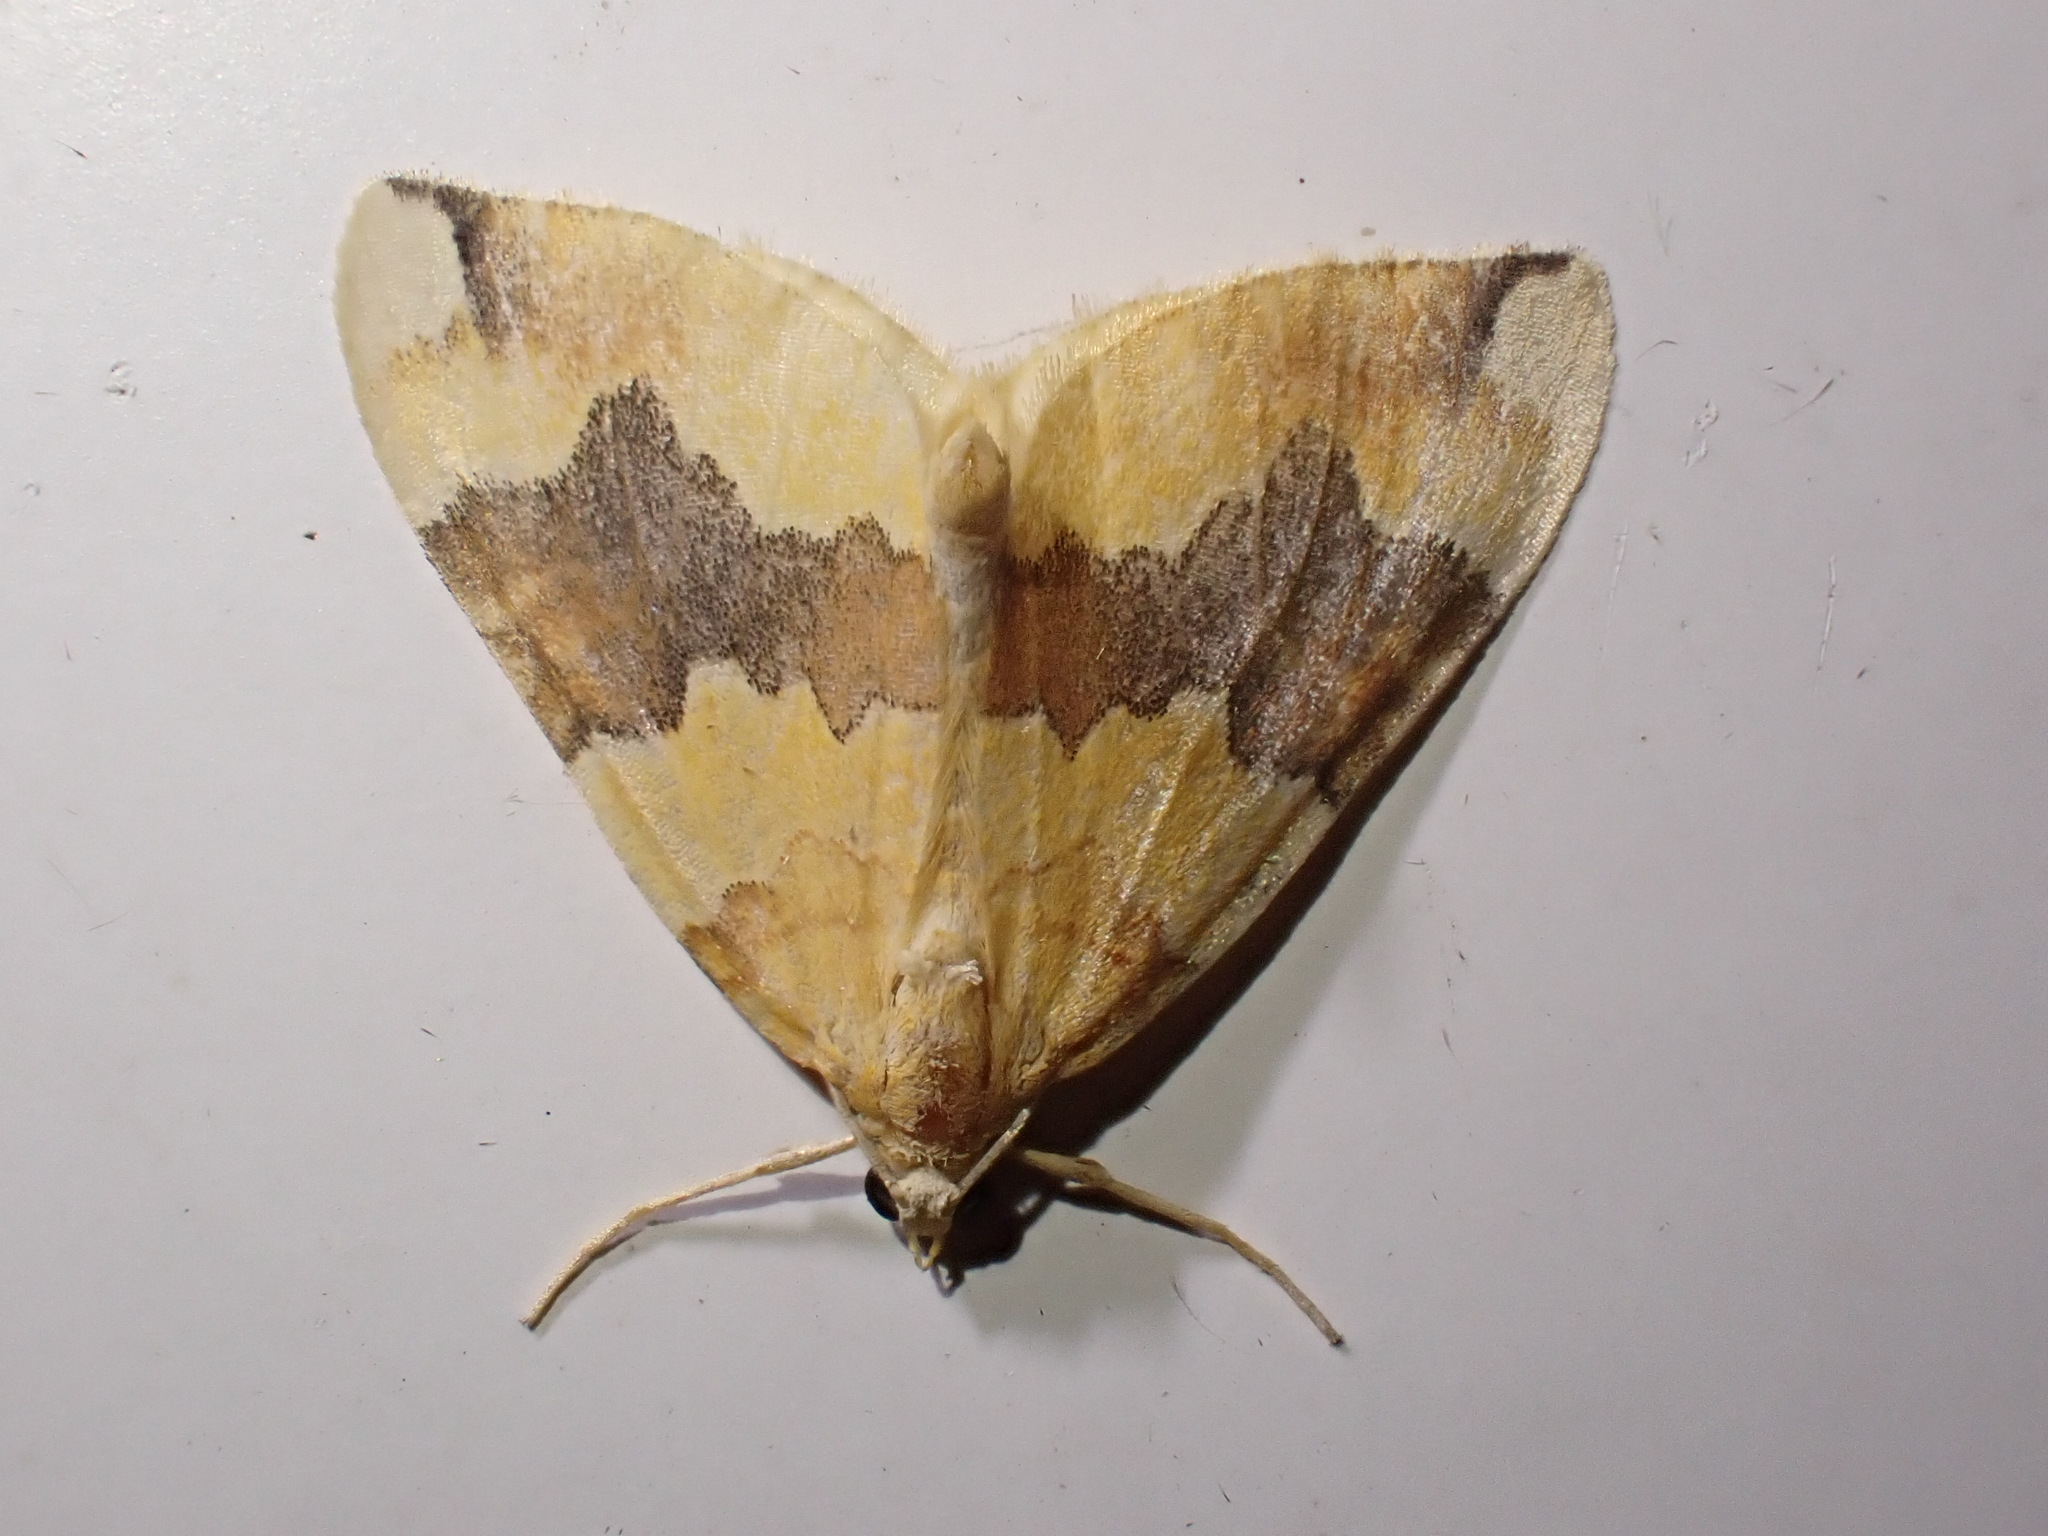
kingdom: Animalia
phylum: Arthropoda
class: Insecta
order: Lepidoptera
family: Geometridae
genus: Cidaria
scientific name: Cidaria fulvata
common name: Barred yellow
